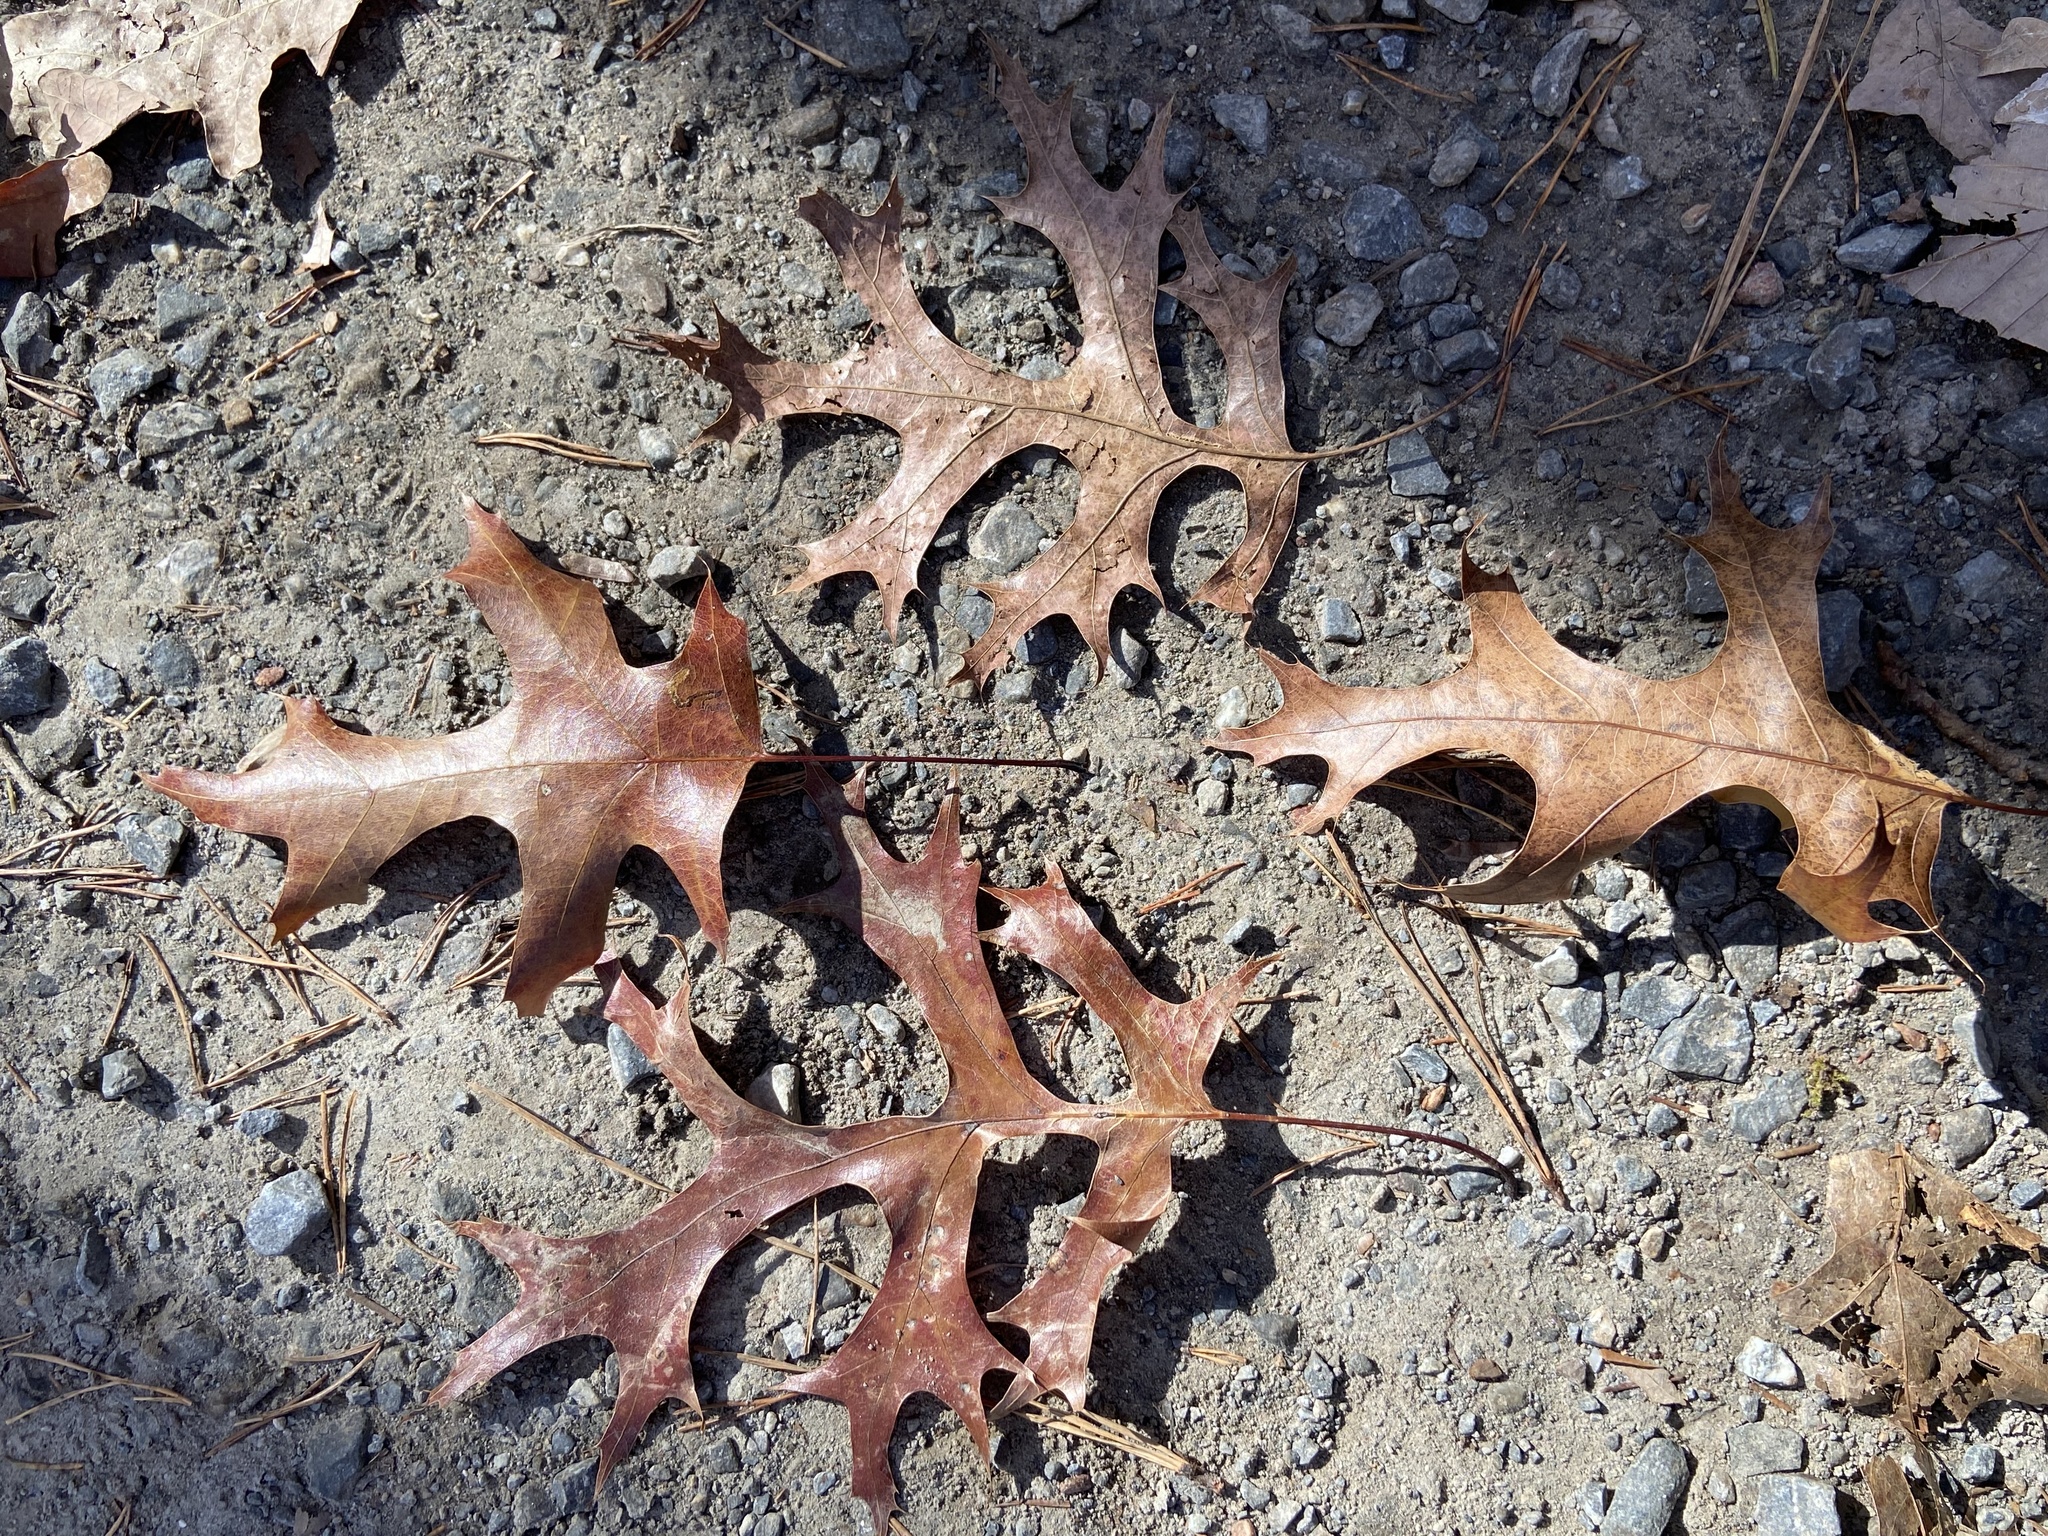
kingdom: Plantae
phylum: Tracheophyta
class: Magnoliopsida
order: Fagales
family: Fagaceae
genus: Quercus
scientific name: Quercus coccinea
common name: Scarlet oak
